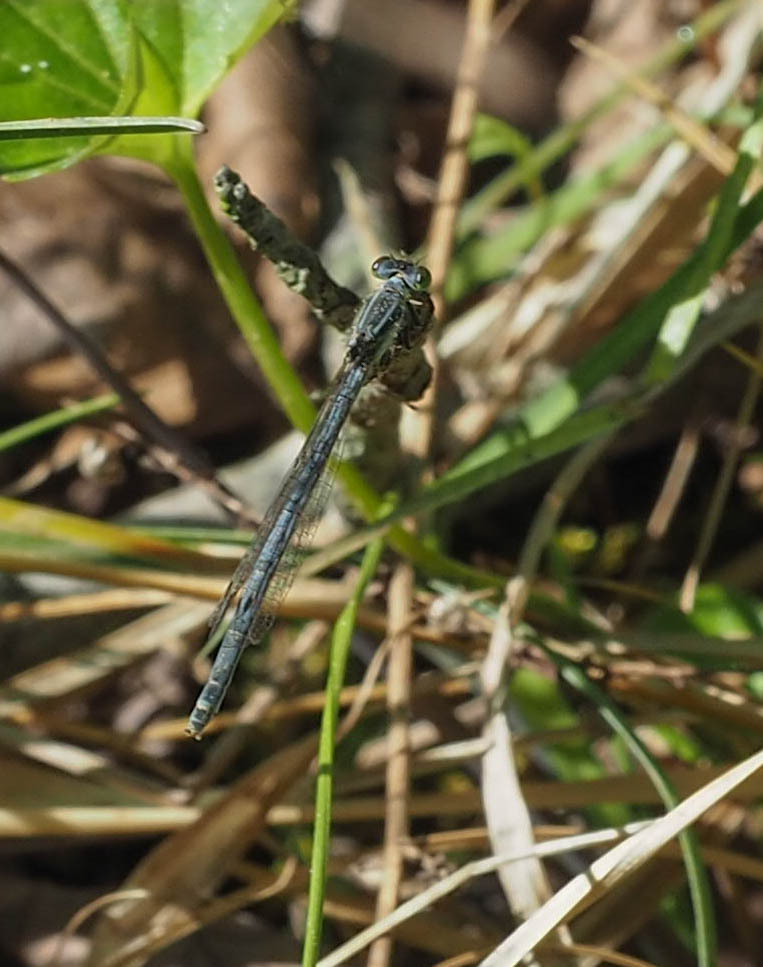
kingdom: Animalia
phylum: Arthropoda
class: Insecta
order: Odonata
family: Coenagrionidae
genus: Ischnura
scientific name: Ischnura verticalis
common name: Eastern forktail
